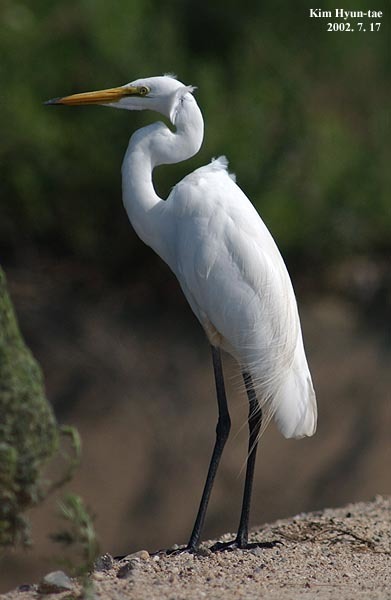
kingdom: Animalia
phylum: Chordata
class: Aves
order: Pelecaniformes
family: Ardeidae
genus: Ardea
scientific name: Ardea modesta
